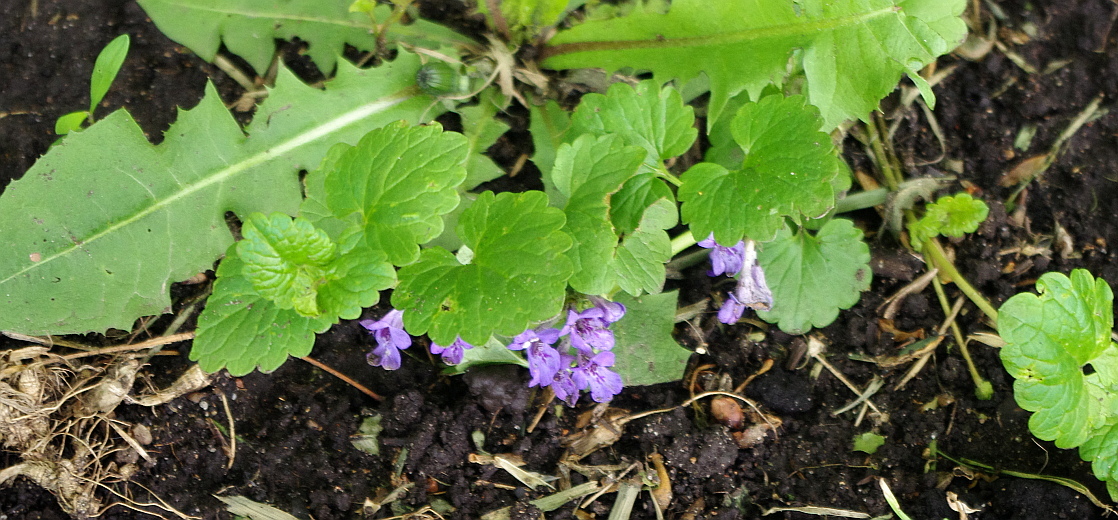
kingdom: Plantae
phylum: Tracheophyta
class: Magnoliopsida
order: Lamiales
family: Lamiaceae
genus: Glechoma
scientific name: Glechoma hederacea
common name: Ground ivy
